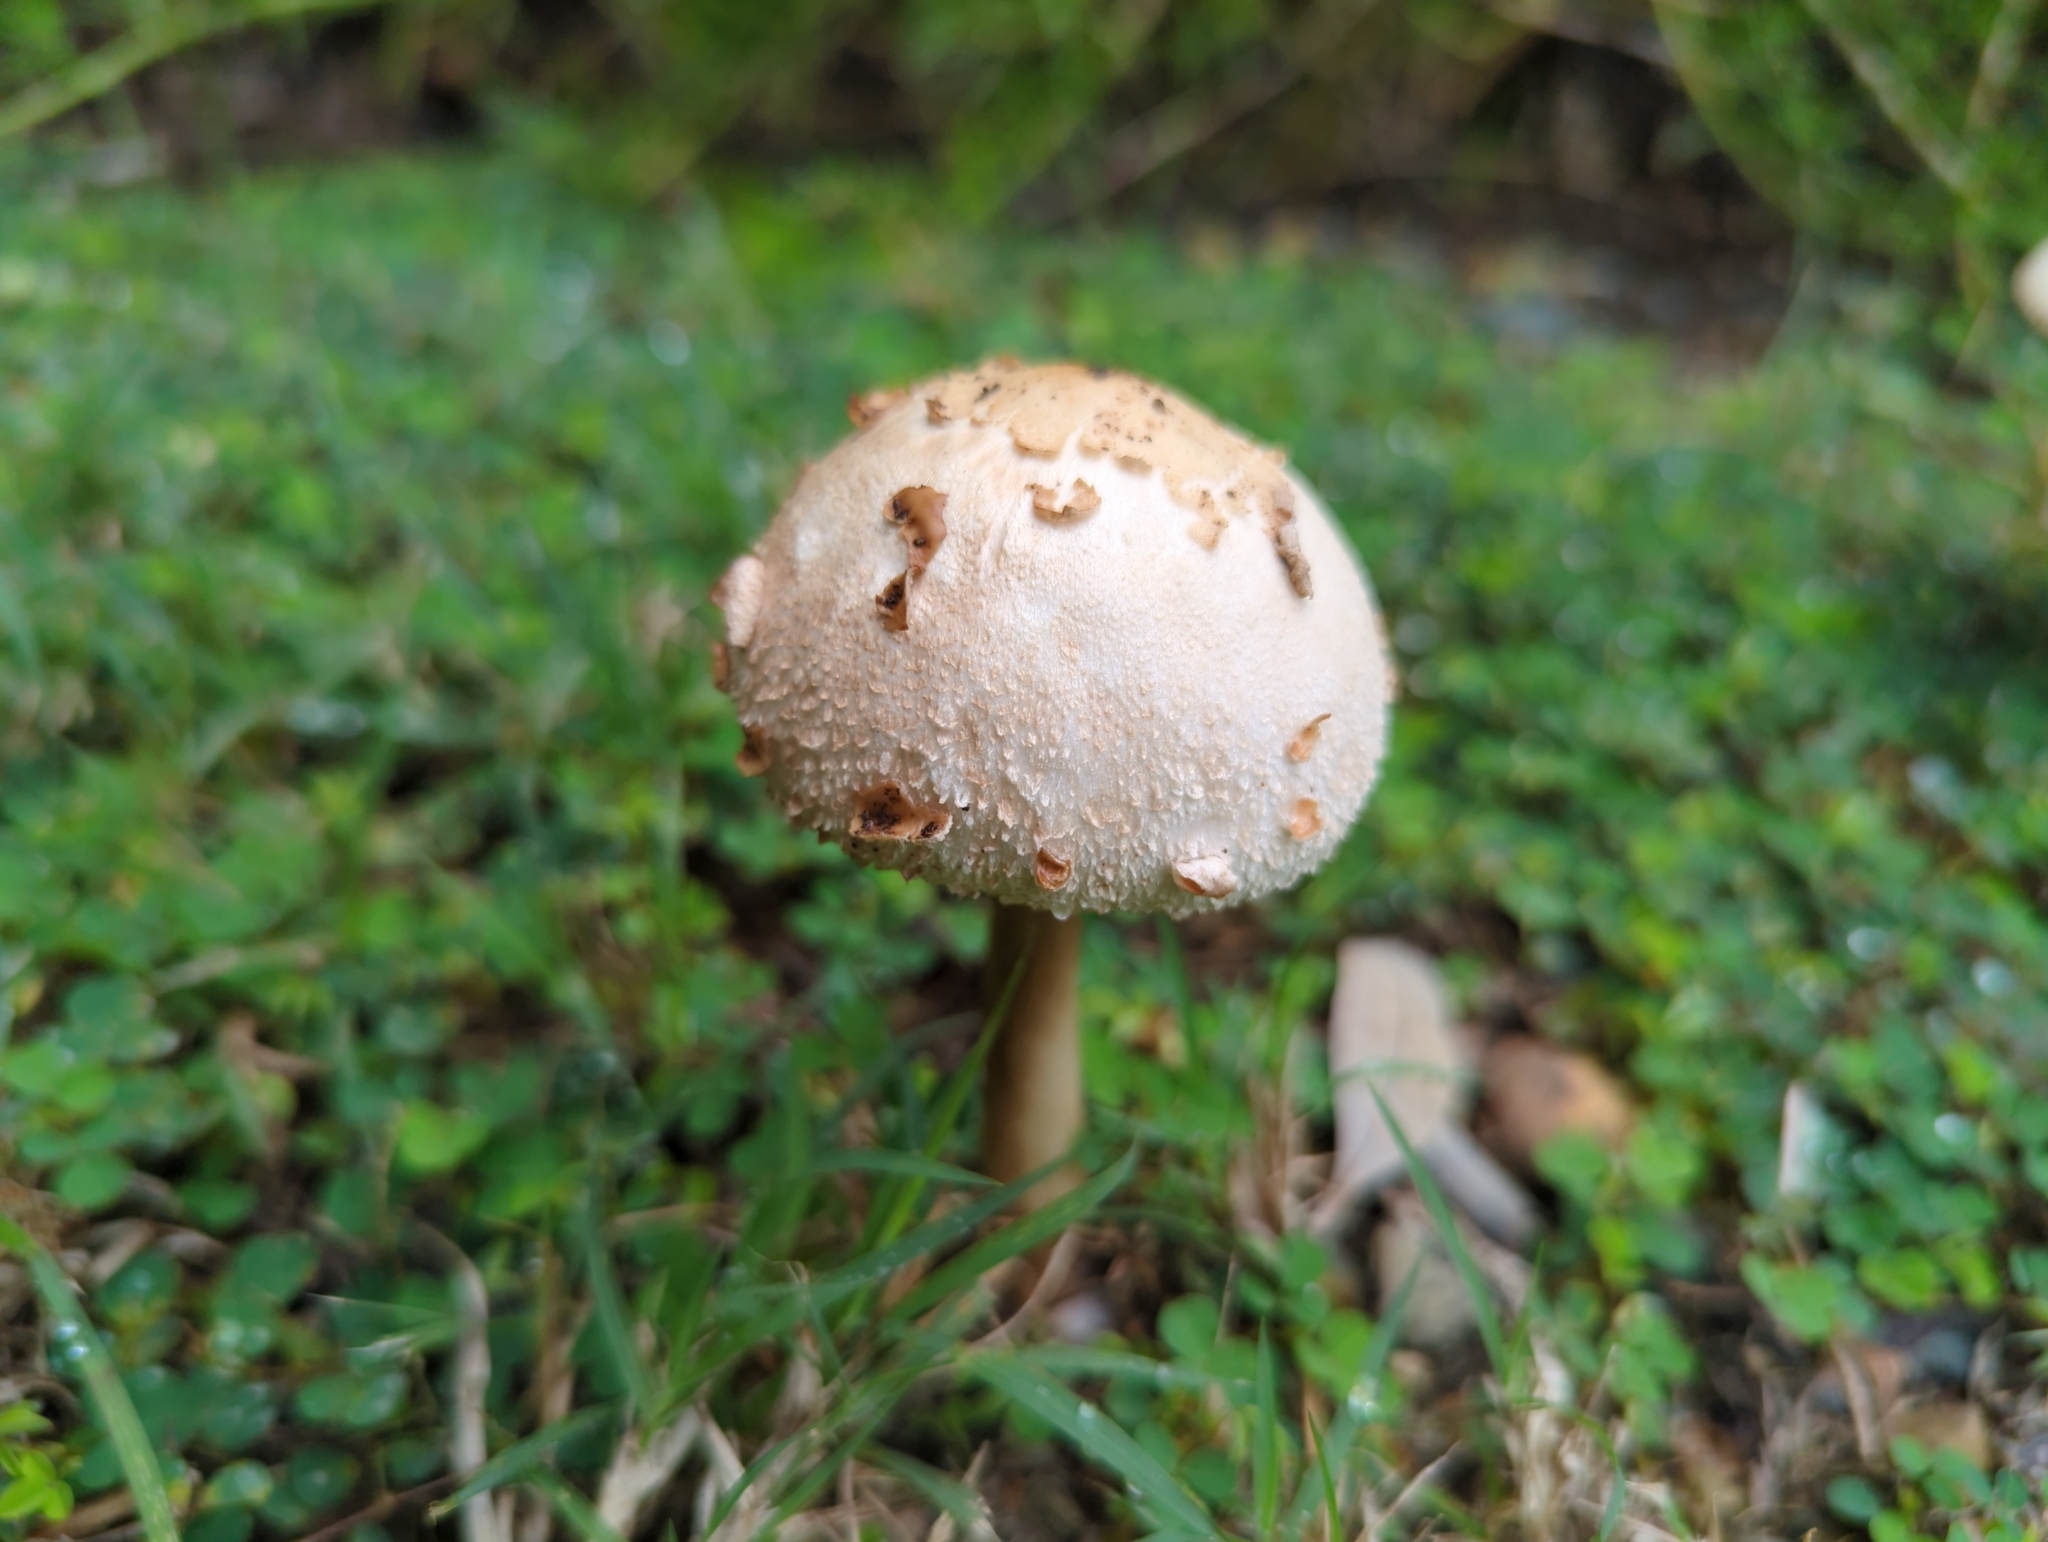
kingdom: Fungi
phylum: Basidiomycota
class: Agaricomycetes
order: Agaricales
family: Agaricaceae
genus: Chlorophyllum
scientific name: Chlorophyllum molybdites
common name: False parasol
